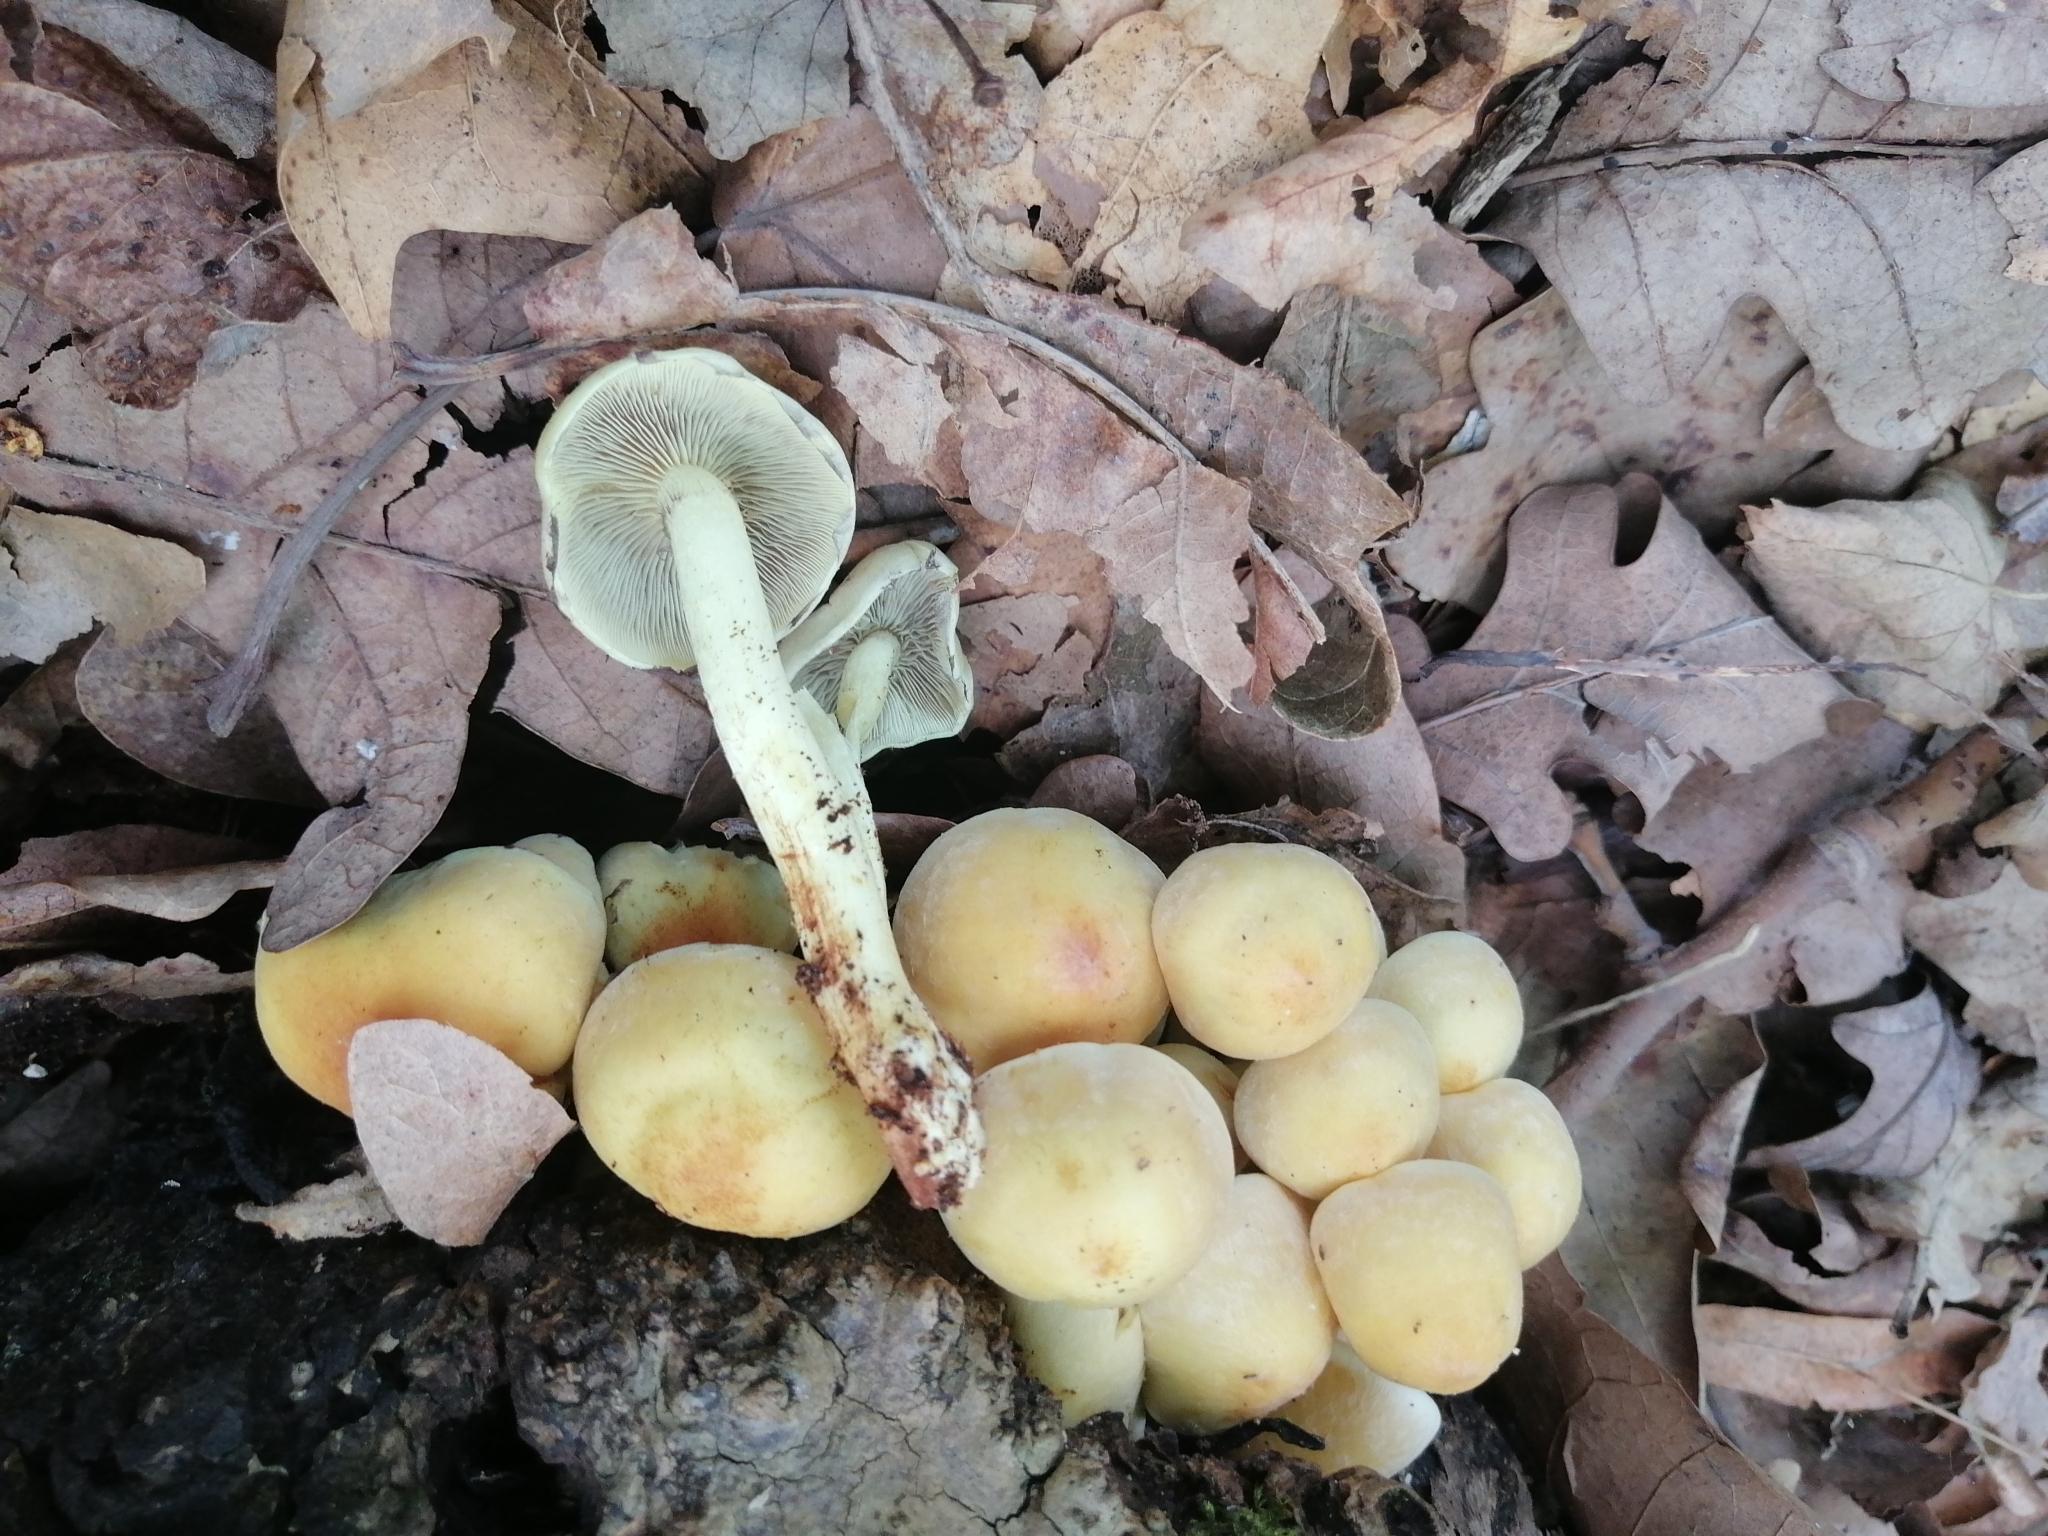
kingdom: Fungi
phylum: Basidiomycota
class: Agaricomycetes
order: Agaricales
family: Strophariaceae
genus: Hypholoma
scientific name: Hypholoma fasciculare
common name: Sulphur tuft
